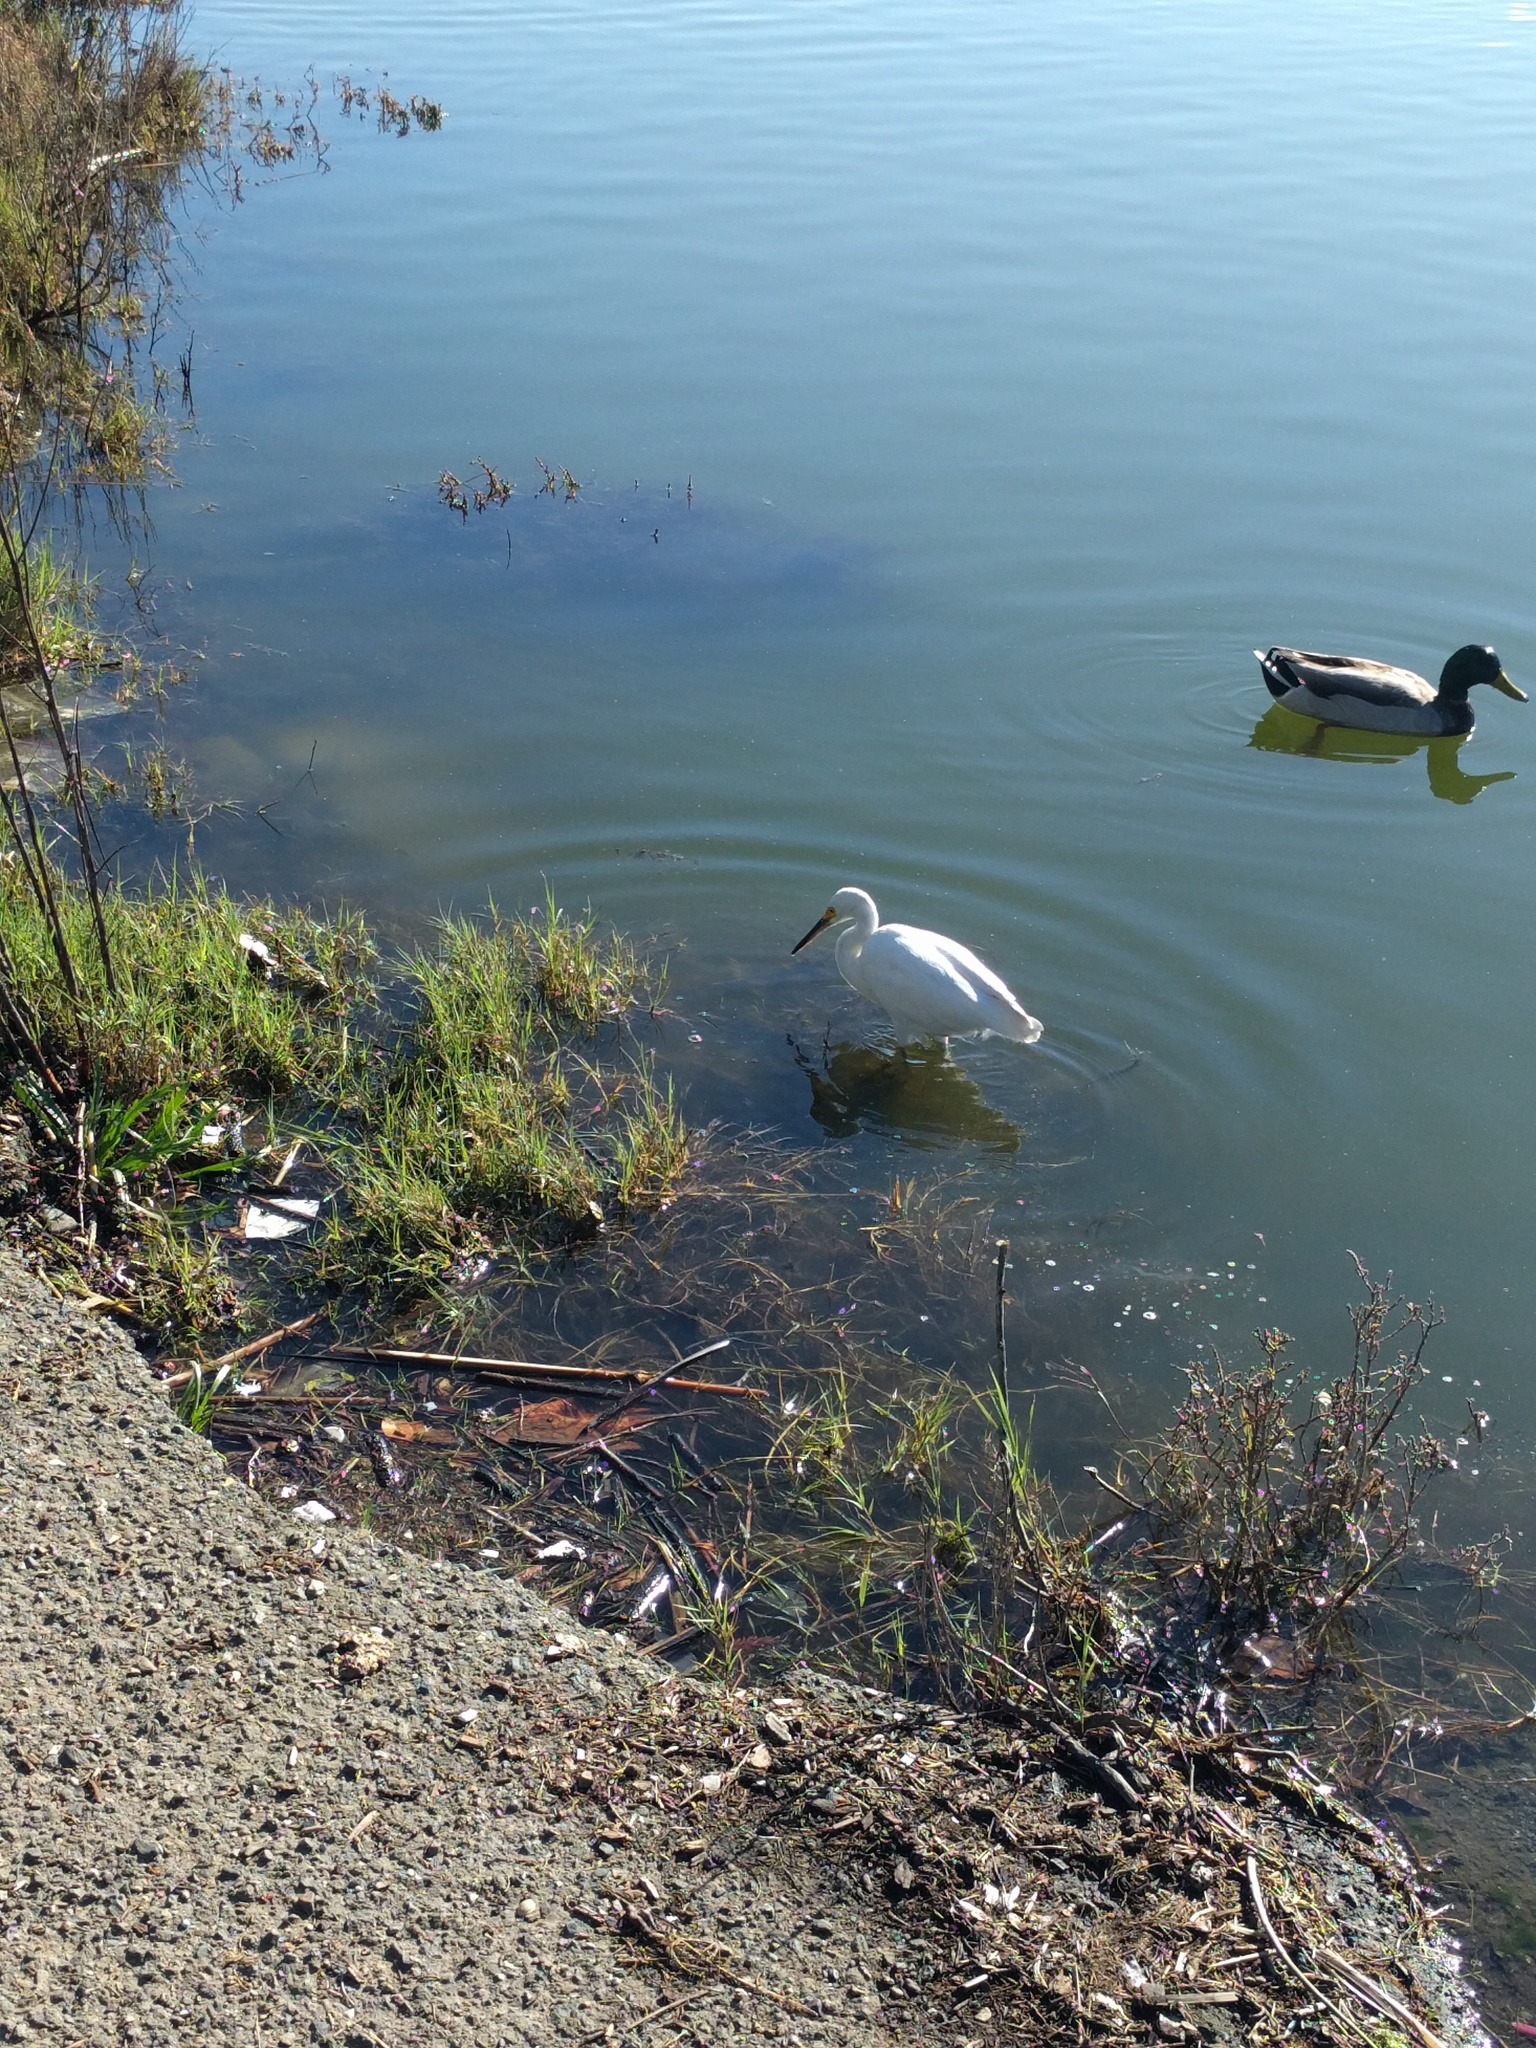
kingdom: Animalia
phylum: Chordata
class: Aves
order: Pelecaniformes
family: Ardeidae
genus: Egretta
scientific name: Egretta thula
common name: Snowy egret
